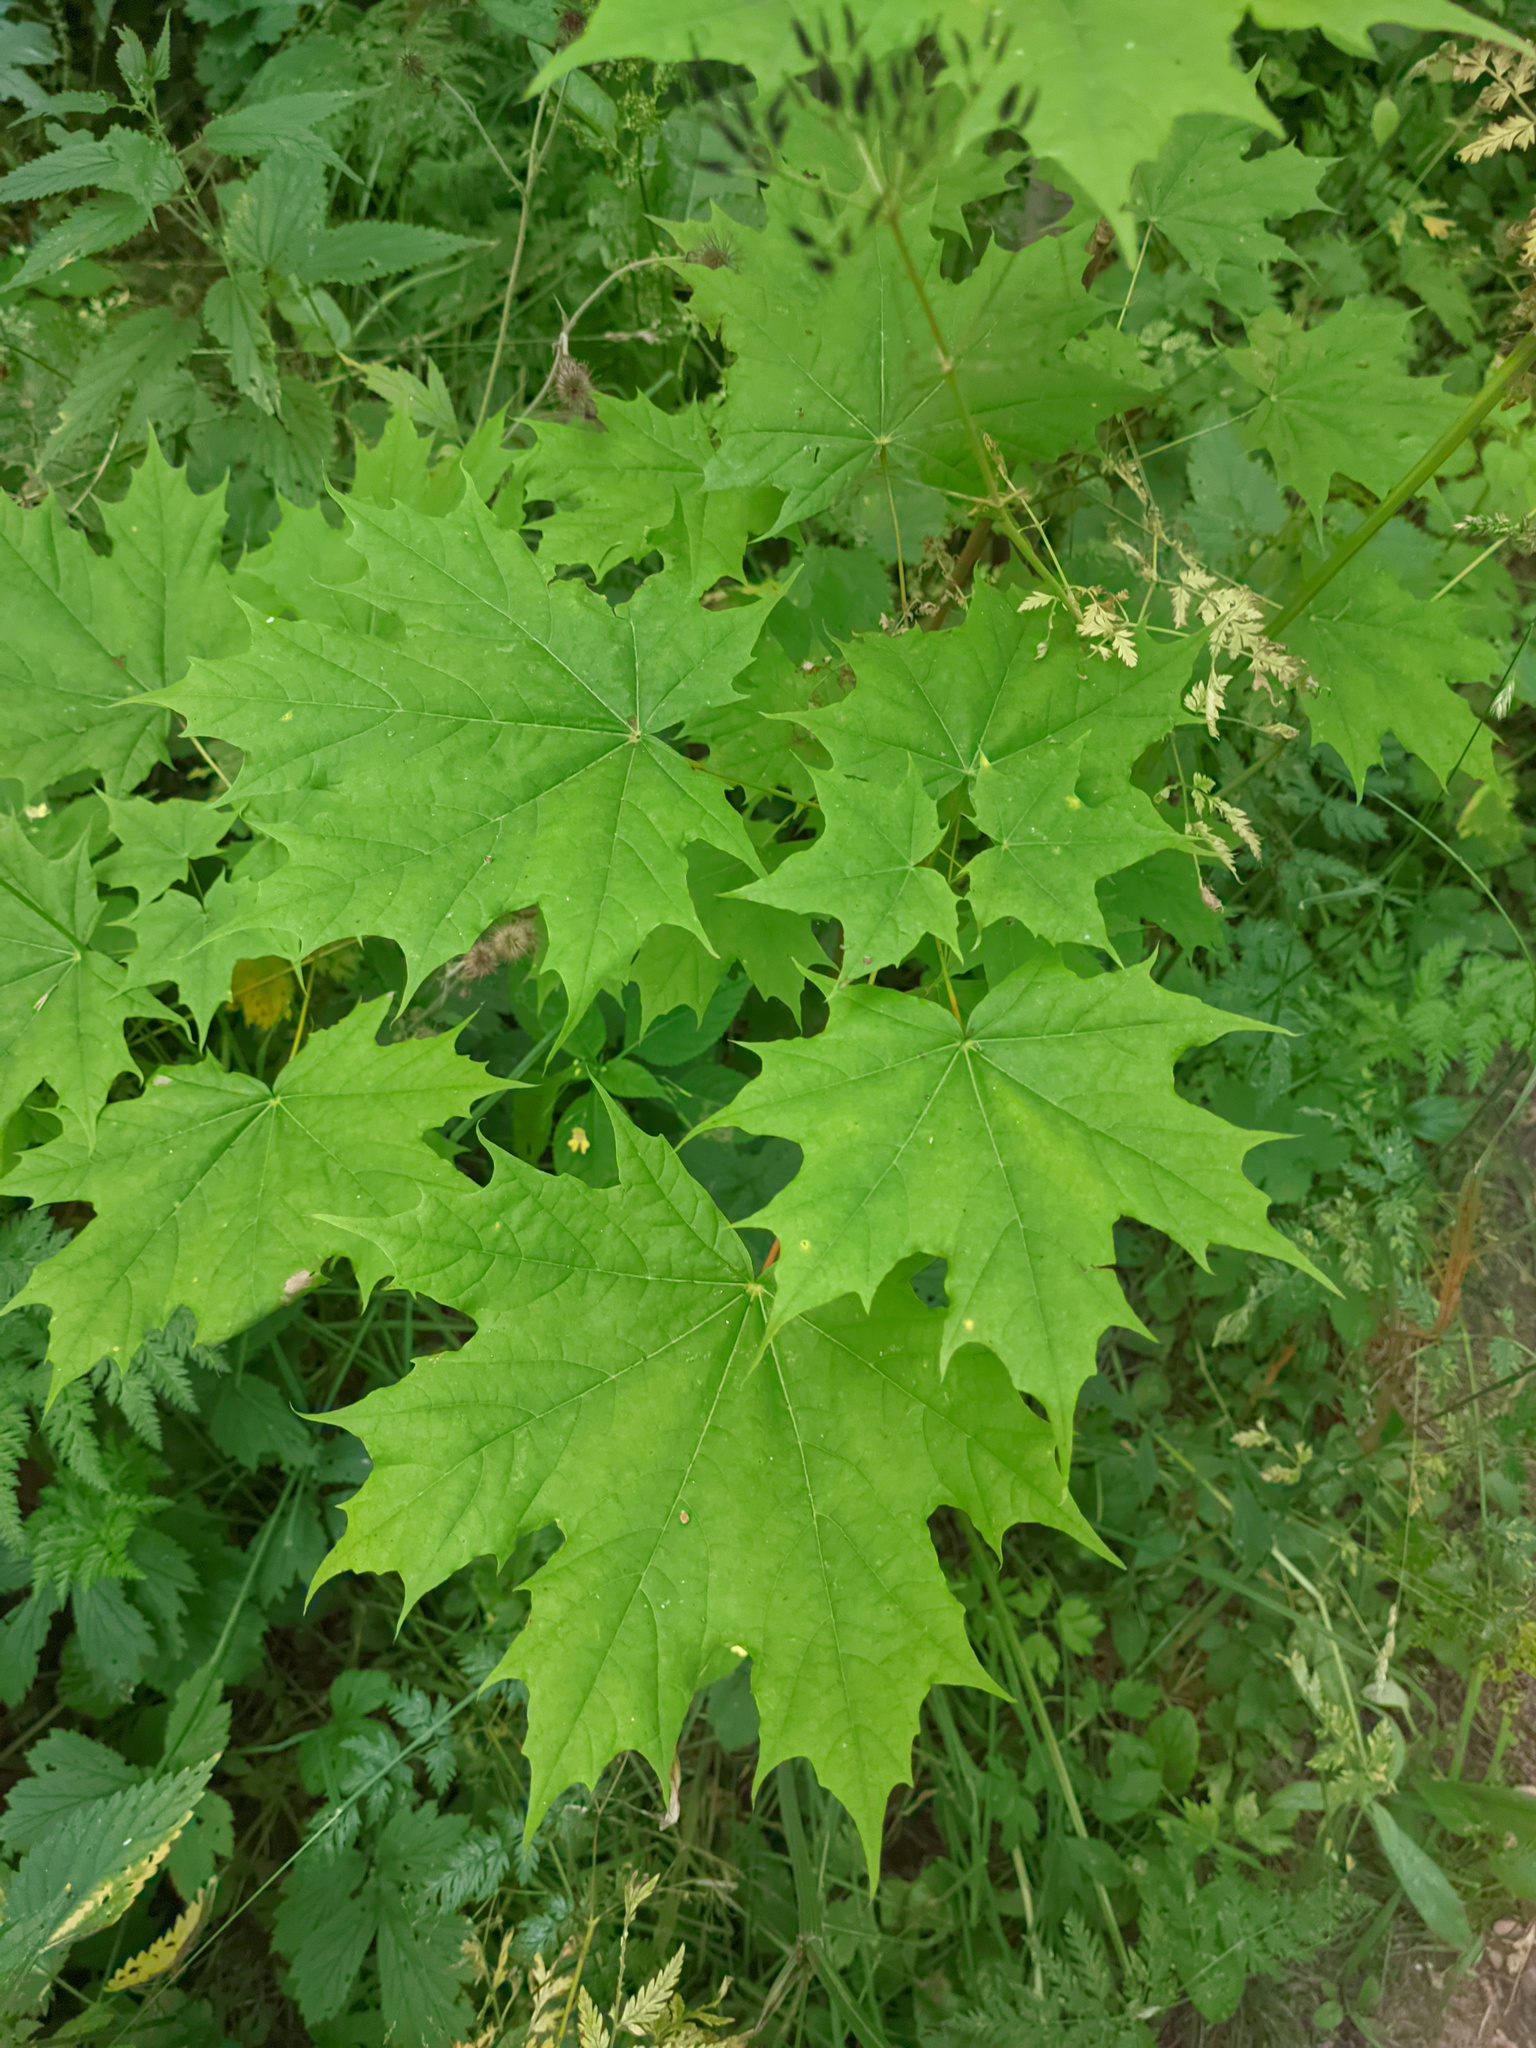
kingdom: Plantae
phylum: Tracheophyta
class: Magnoliopsida
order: Sapindales
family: Sapindaceae
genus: Acer
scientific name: Acer platanoides
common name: Norway maple
